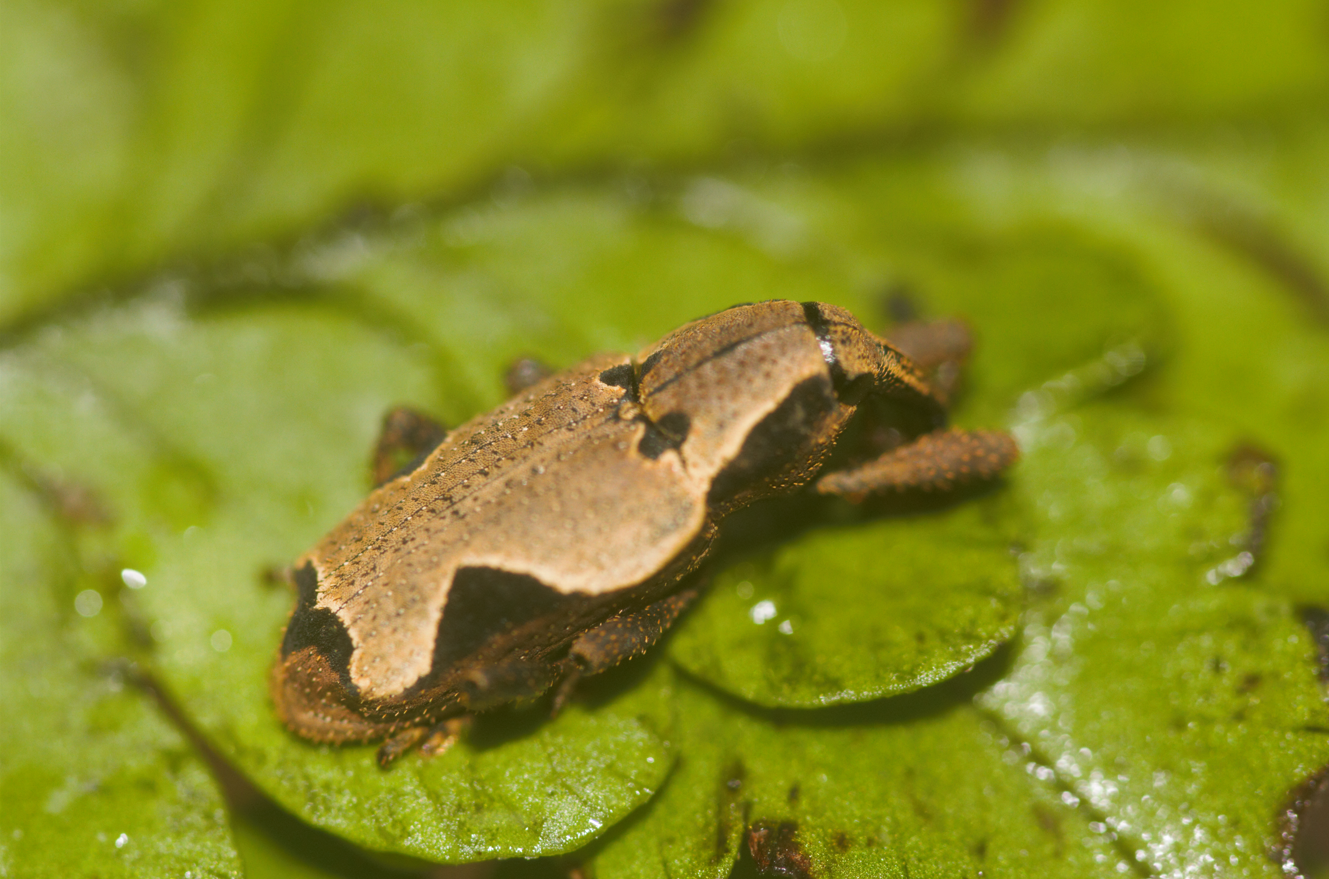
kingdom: Animalia
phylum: Arthropoda
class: Insecta
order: Coleoptera
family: Curculionidae
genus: Epistrophus
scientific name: Epistrophus ambitiosus
